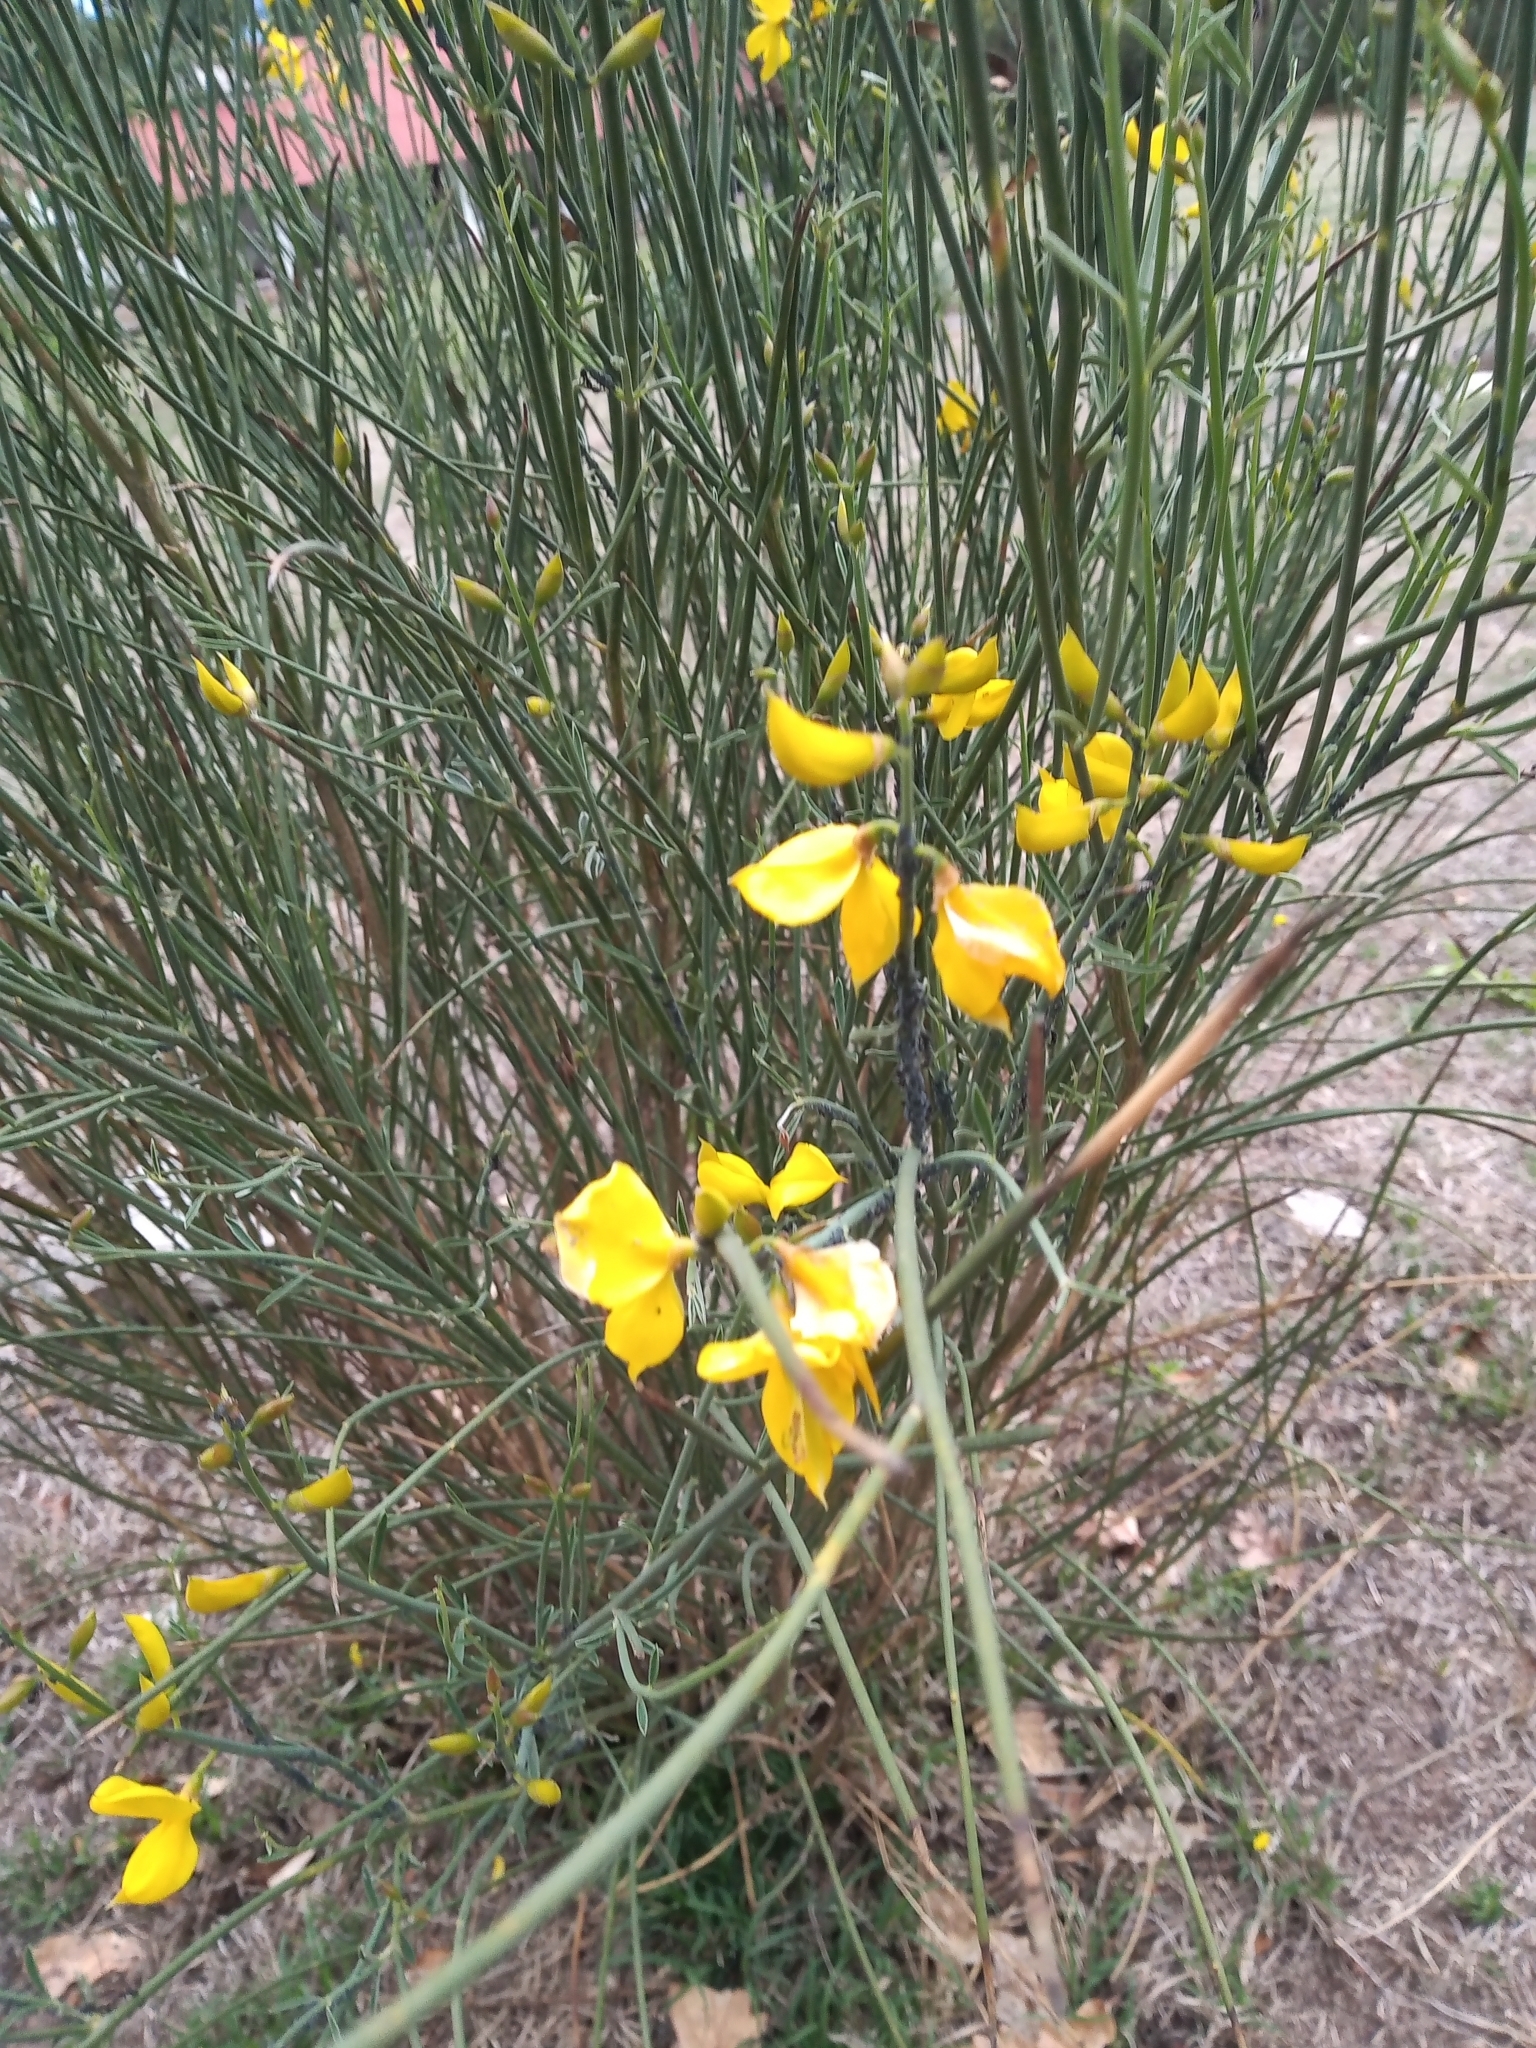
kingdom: Plantae
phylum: Tracheophyta
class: Magnoliopsida
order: Fabales
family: Fabaceae
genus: Spartium
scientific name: Spartium junceum
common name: Spanish broom
